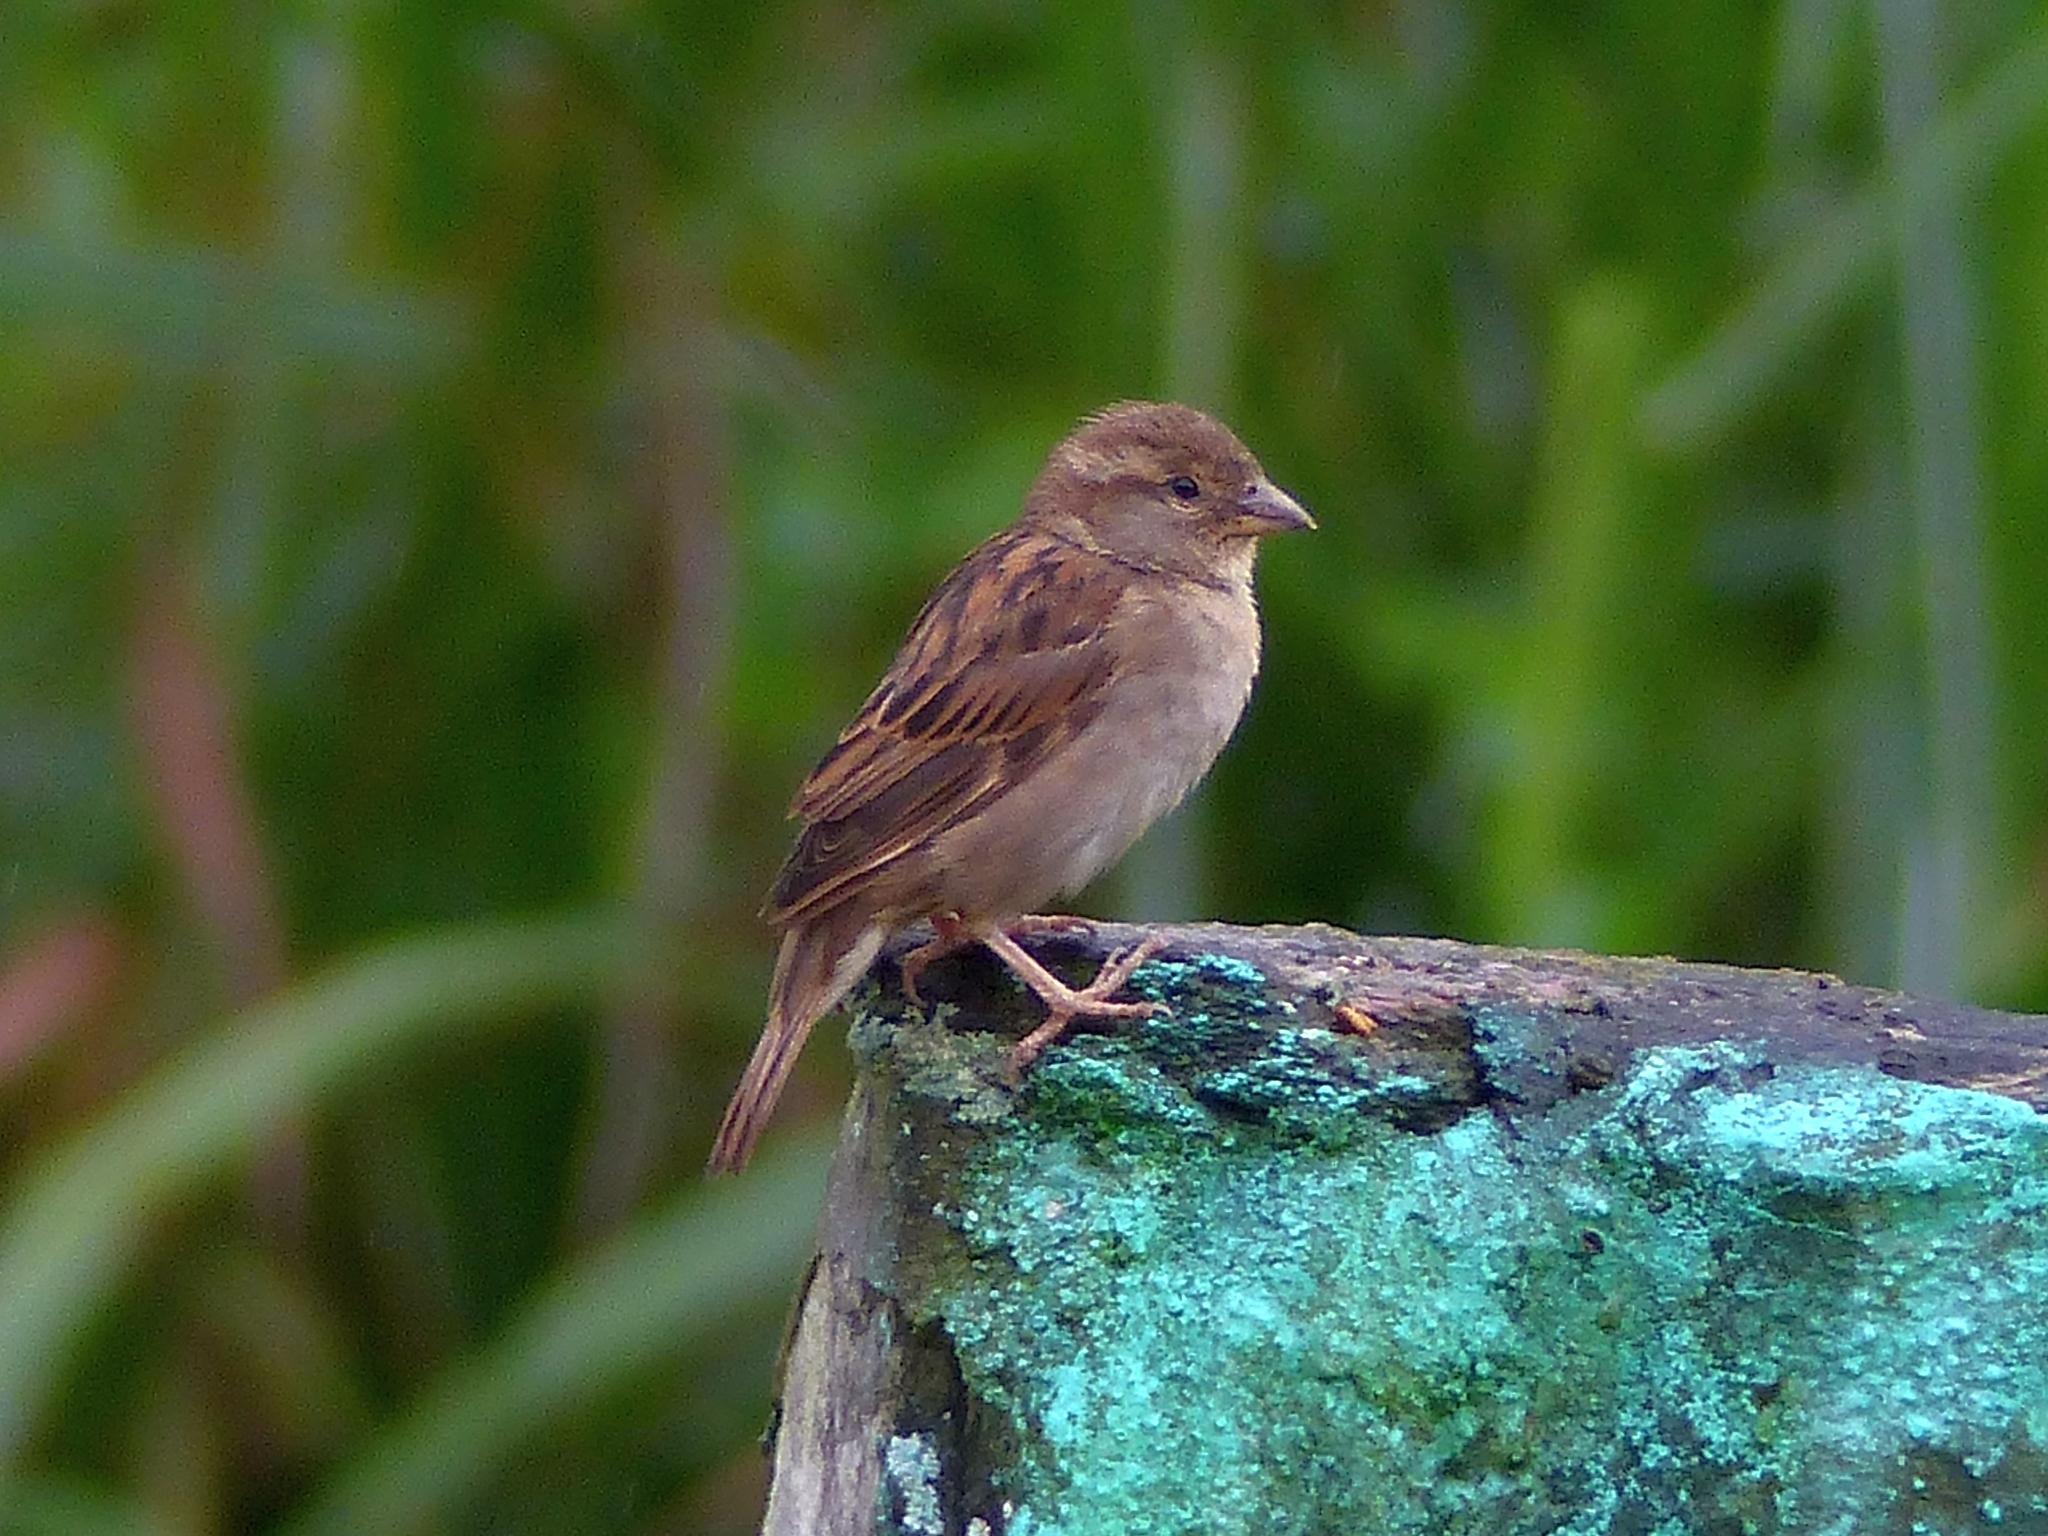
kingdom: Animalia
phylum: Chordata
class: Aves
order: Passeriformes
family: Passeridae
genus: Passer
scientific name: Passer domesticus
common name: House sparrow
